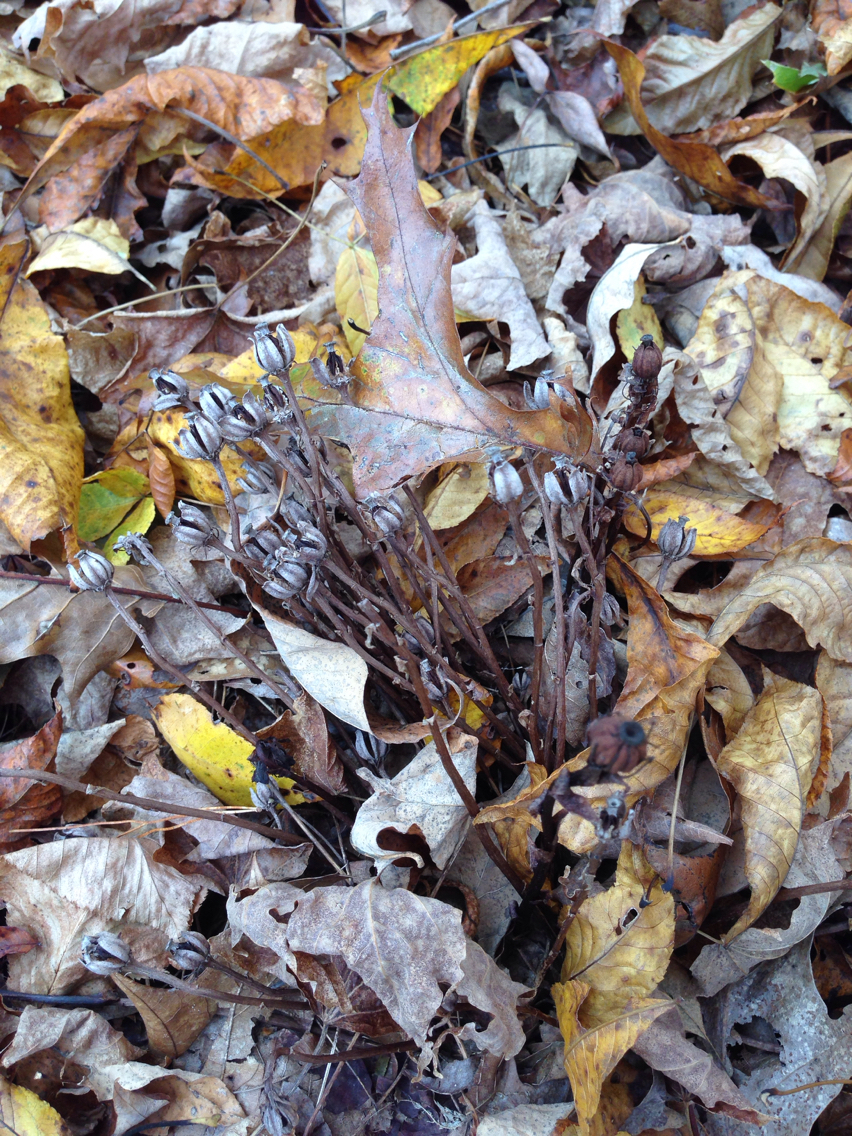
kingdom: Plantae
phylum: Tracheophyta
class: Magnoliopsida
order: Ericales
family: Ericaceae
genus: Monotropa
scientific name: Monotropa uniflora
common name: Convulsion root
